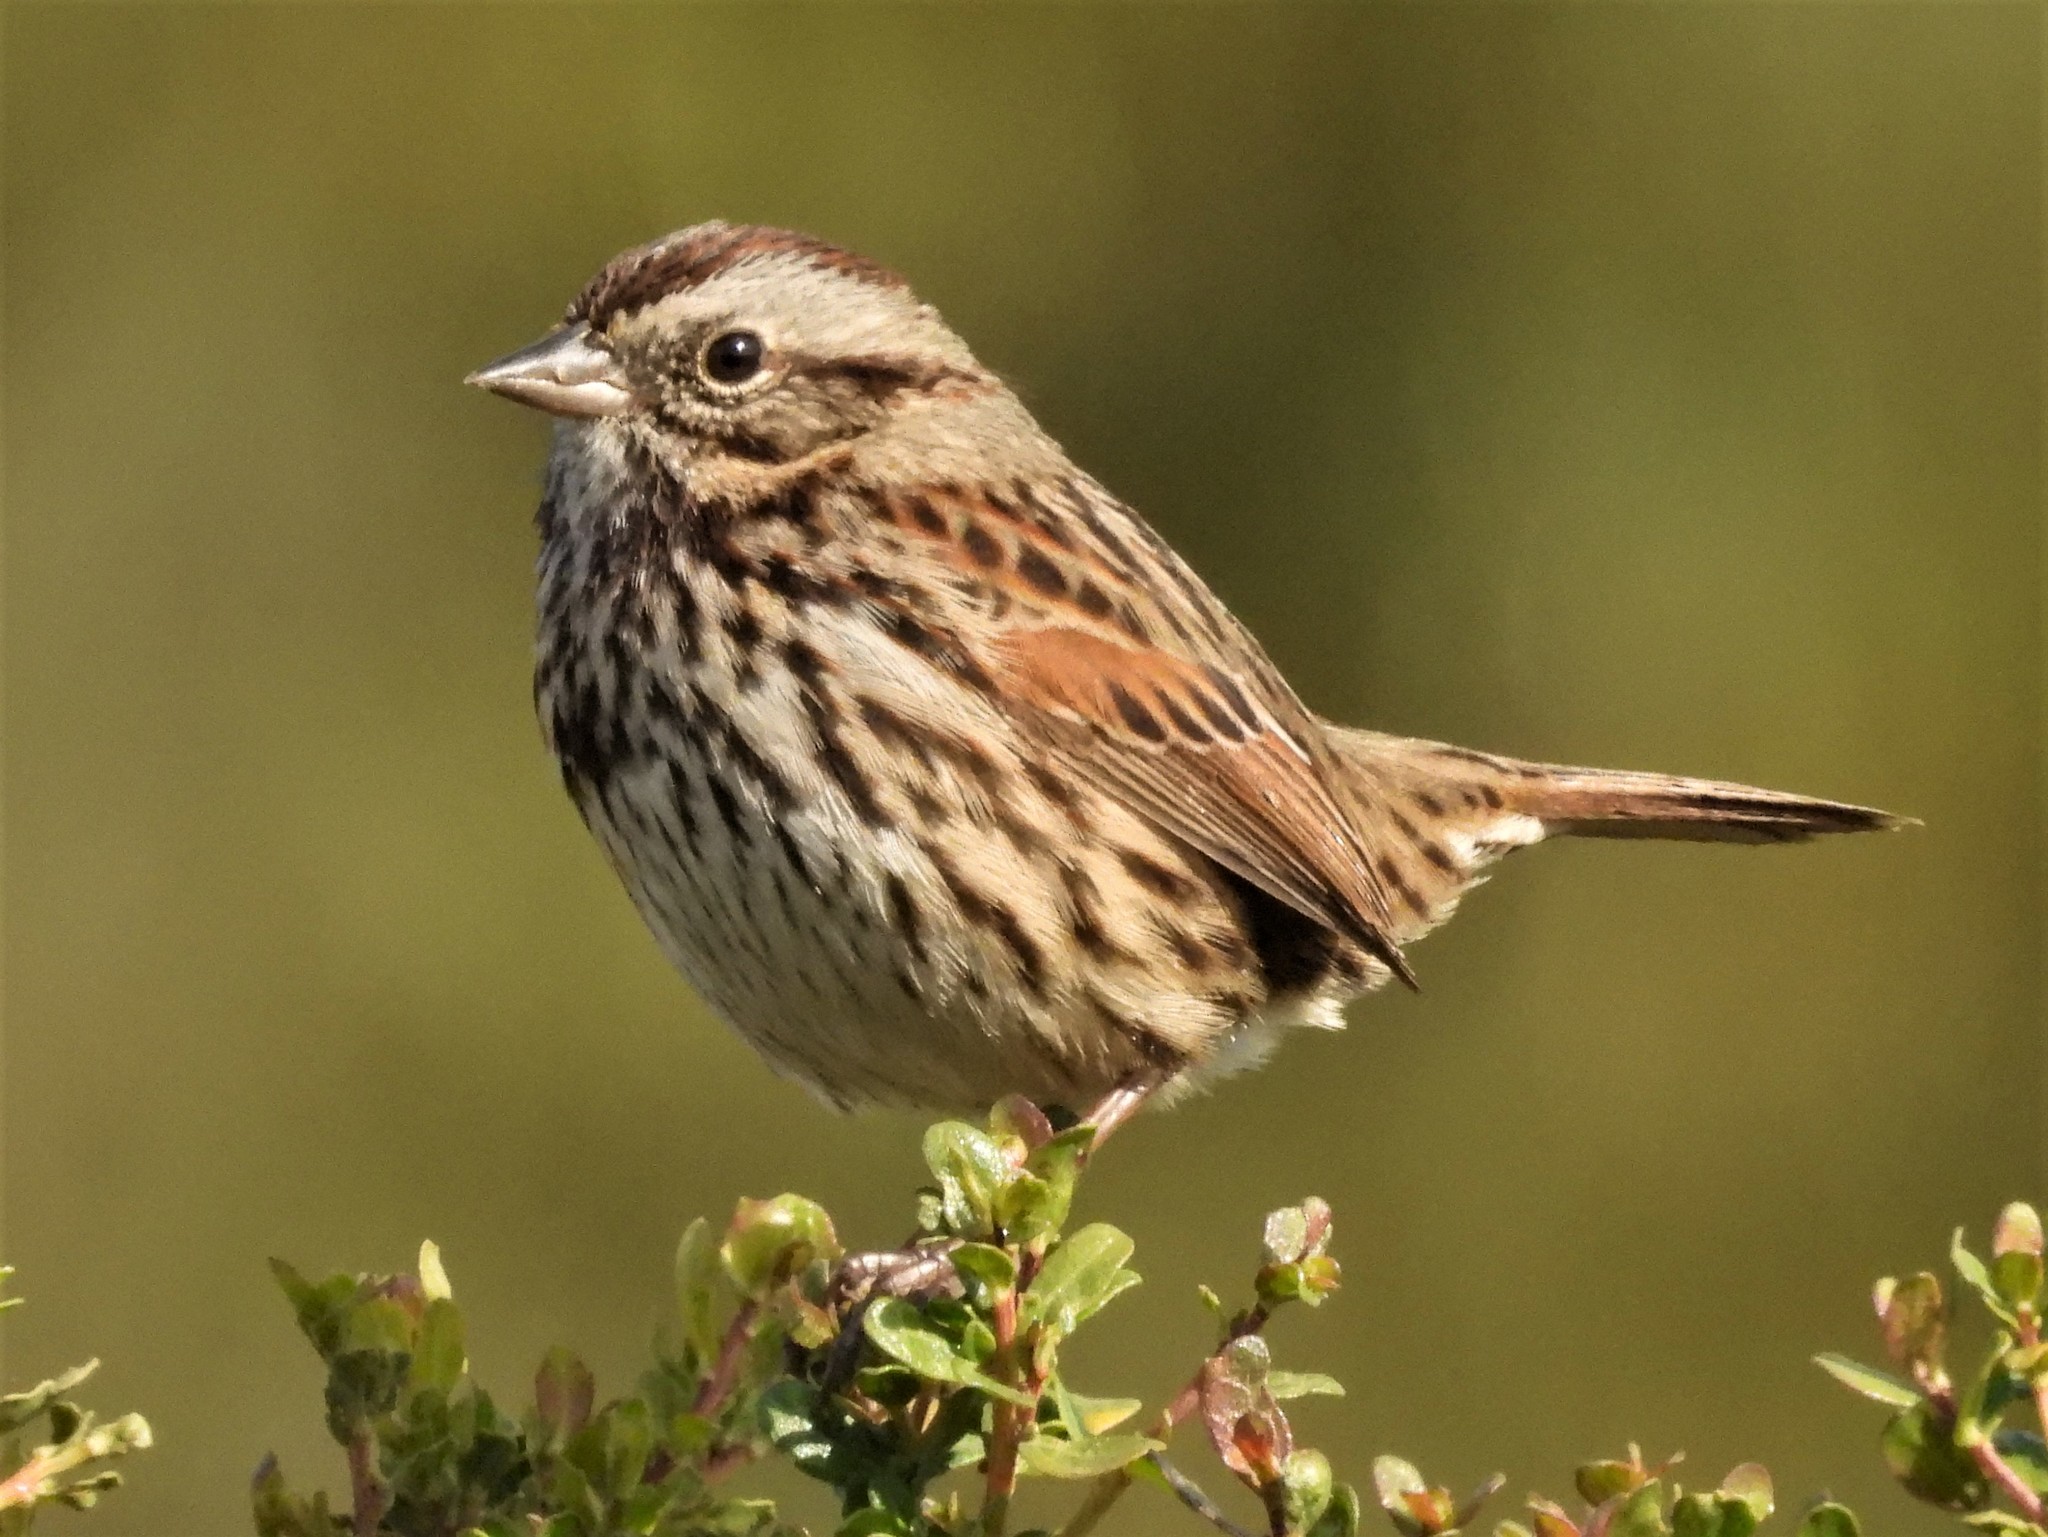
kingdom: Animalia
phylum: Chordata
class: Aves
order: Passeriformes
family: Passerellidae
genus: Melospiza
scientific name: Melospiza melodia
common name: Song sparrow
